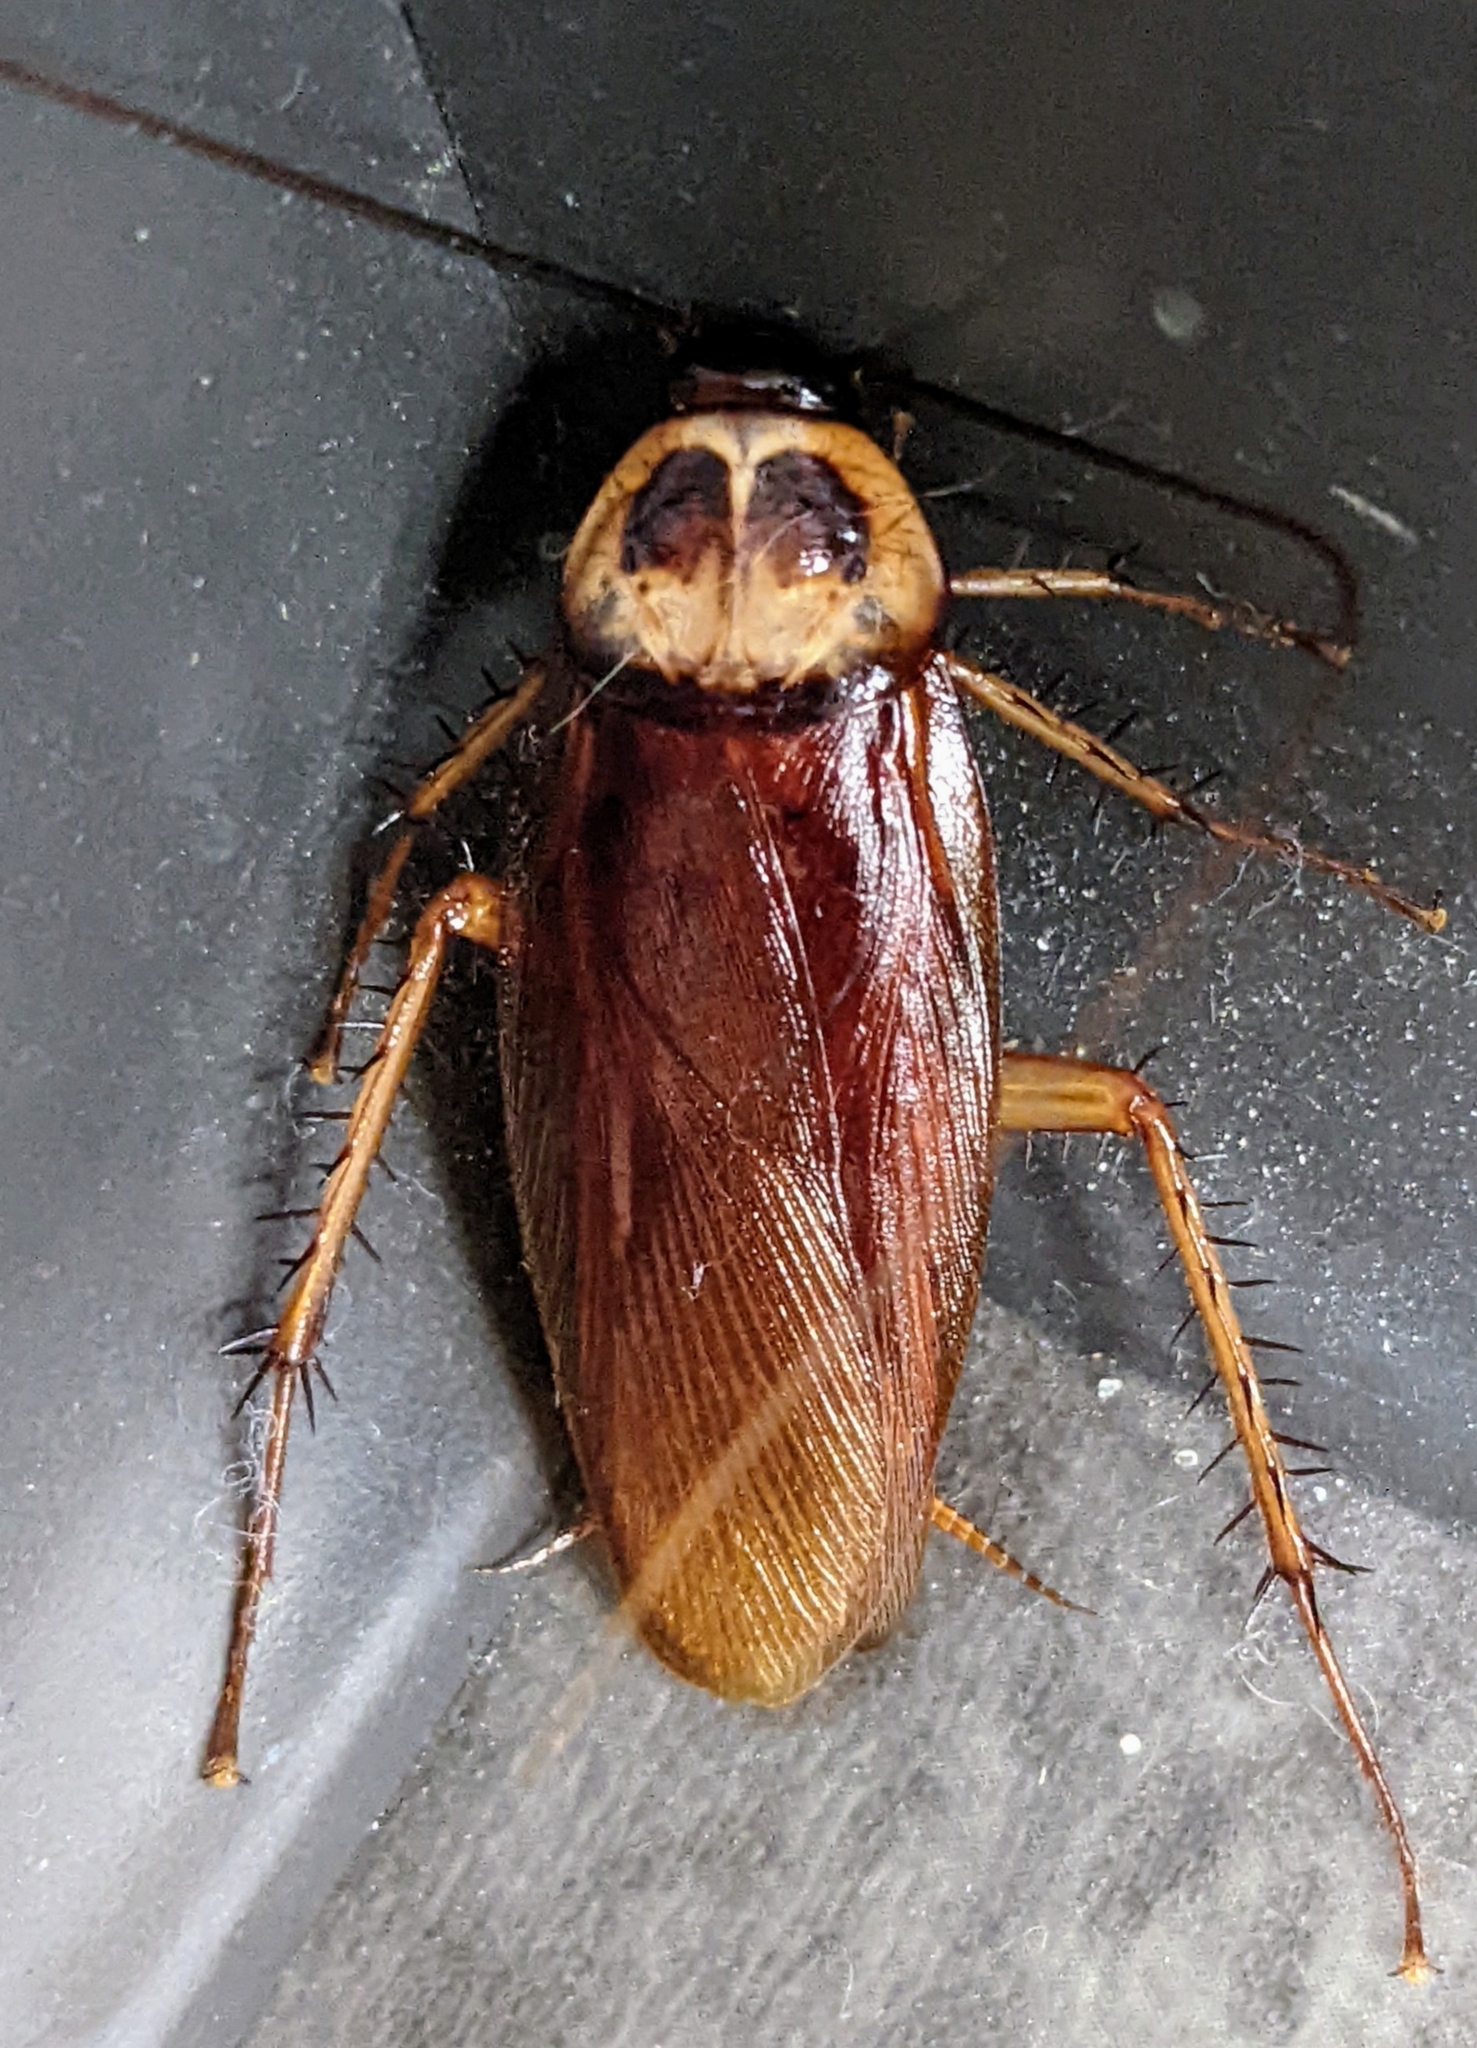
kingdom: Animalia
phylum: Arthropoda
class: Insecta
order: Blattodea
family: Blattidae
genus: Periplaneta
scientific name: Periplaneta americana
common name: American cockroach
